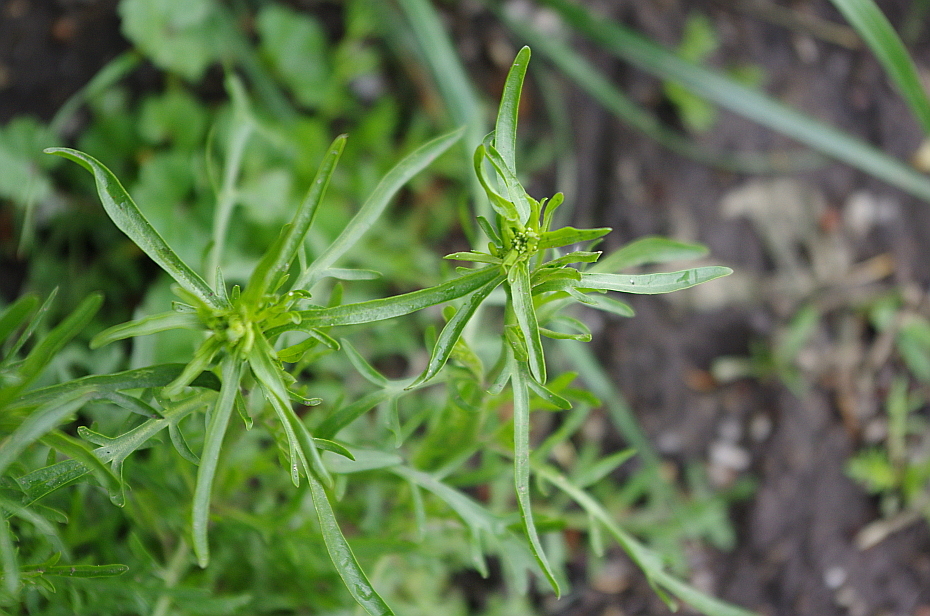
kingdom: Plantae
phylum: Tracheophyta
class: Magnoliopsida
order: Brassicales
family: Brassicaceae
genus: Lepidium
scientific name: Lepidium ruderale
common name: Narrow-leaved pepperwort
